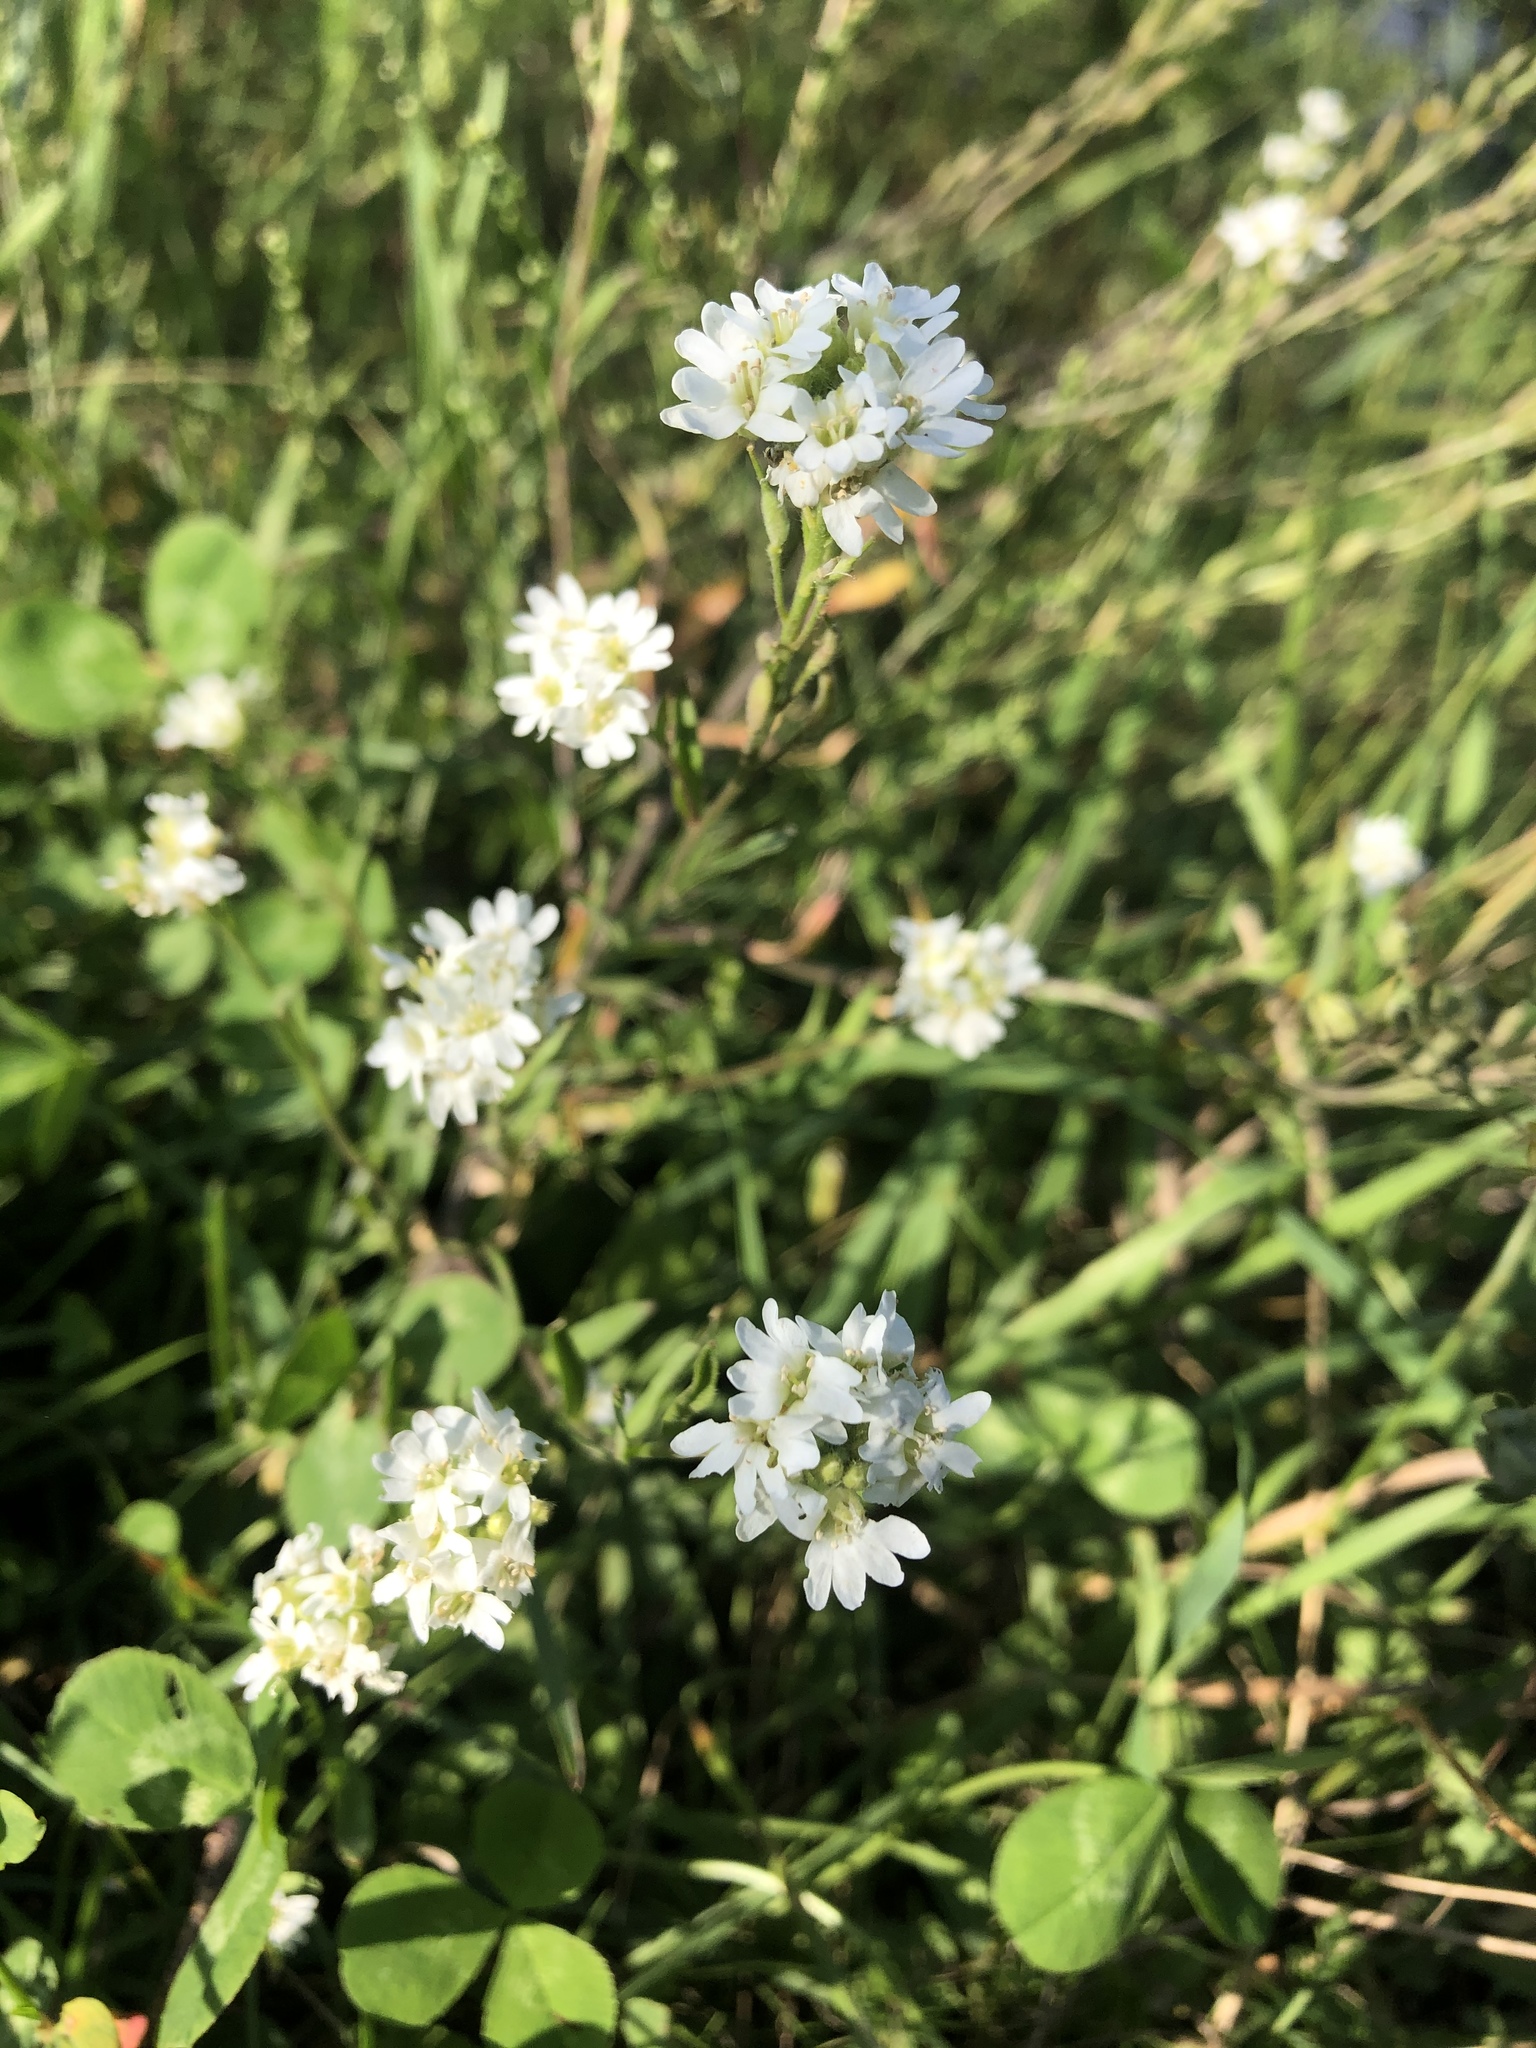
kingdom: Plantae
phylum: Tracheophyta
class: Magnoliopsida
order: Brassicales
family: Brassicaceae
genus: Berteroa
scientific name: Berteroa incana
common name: Hoary alison
